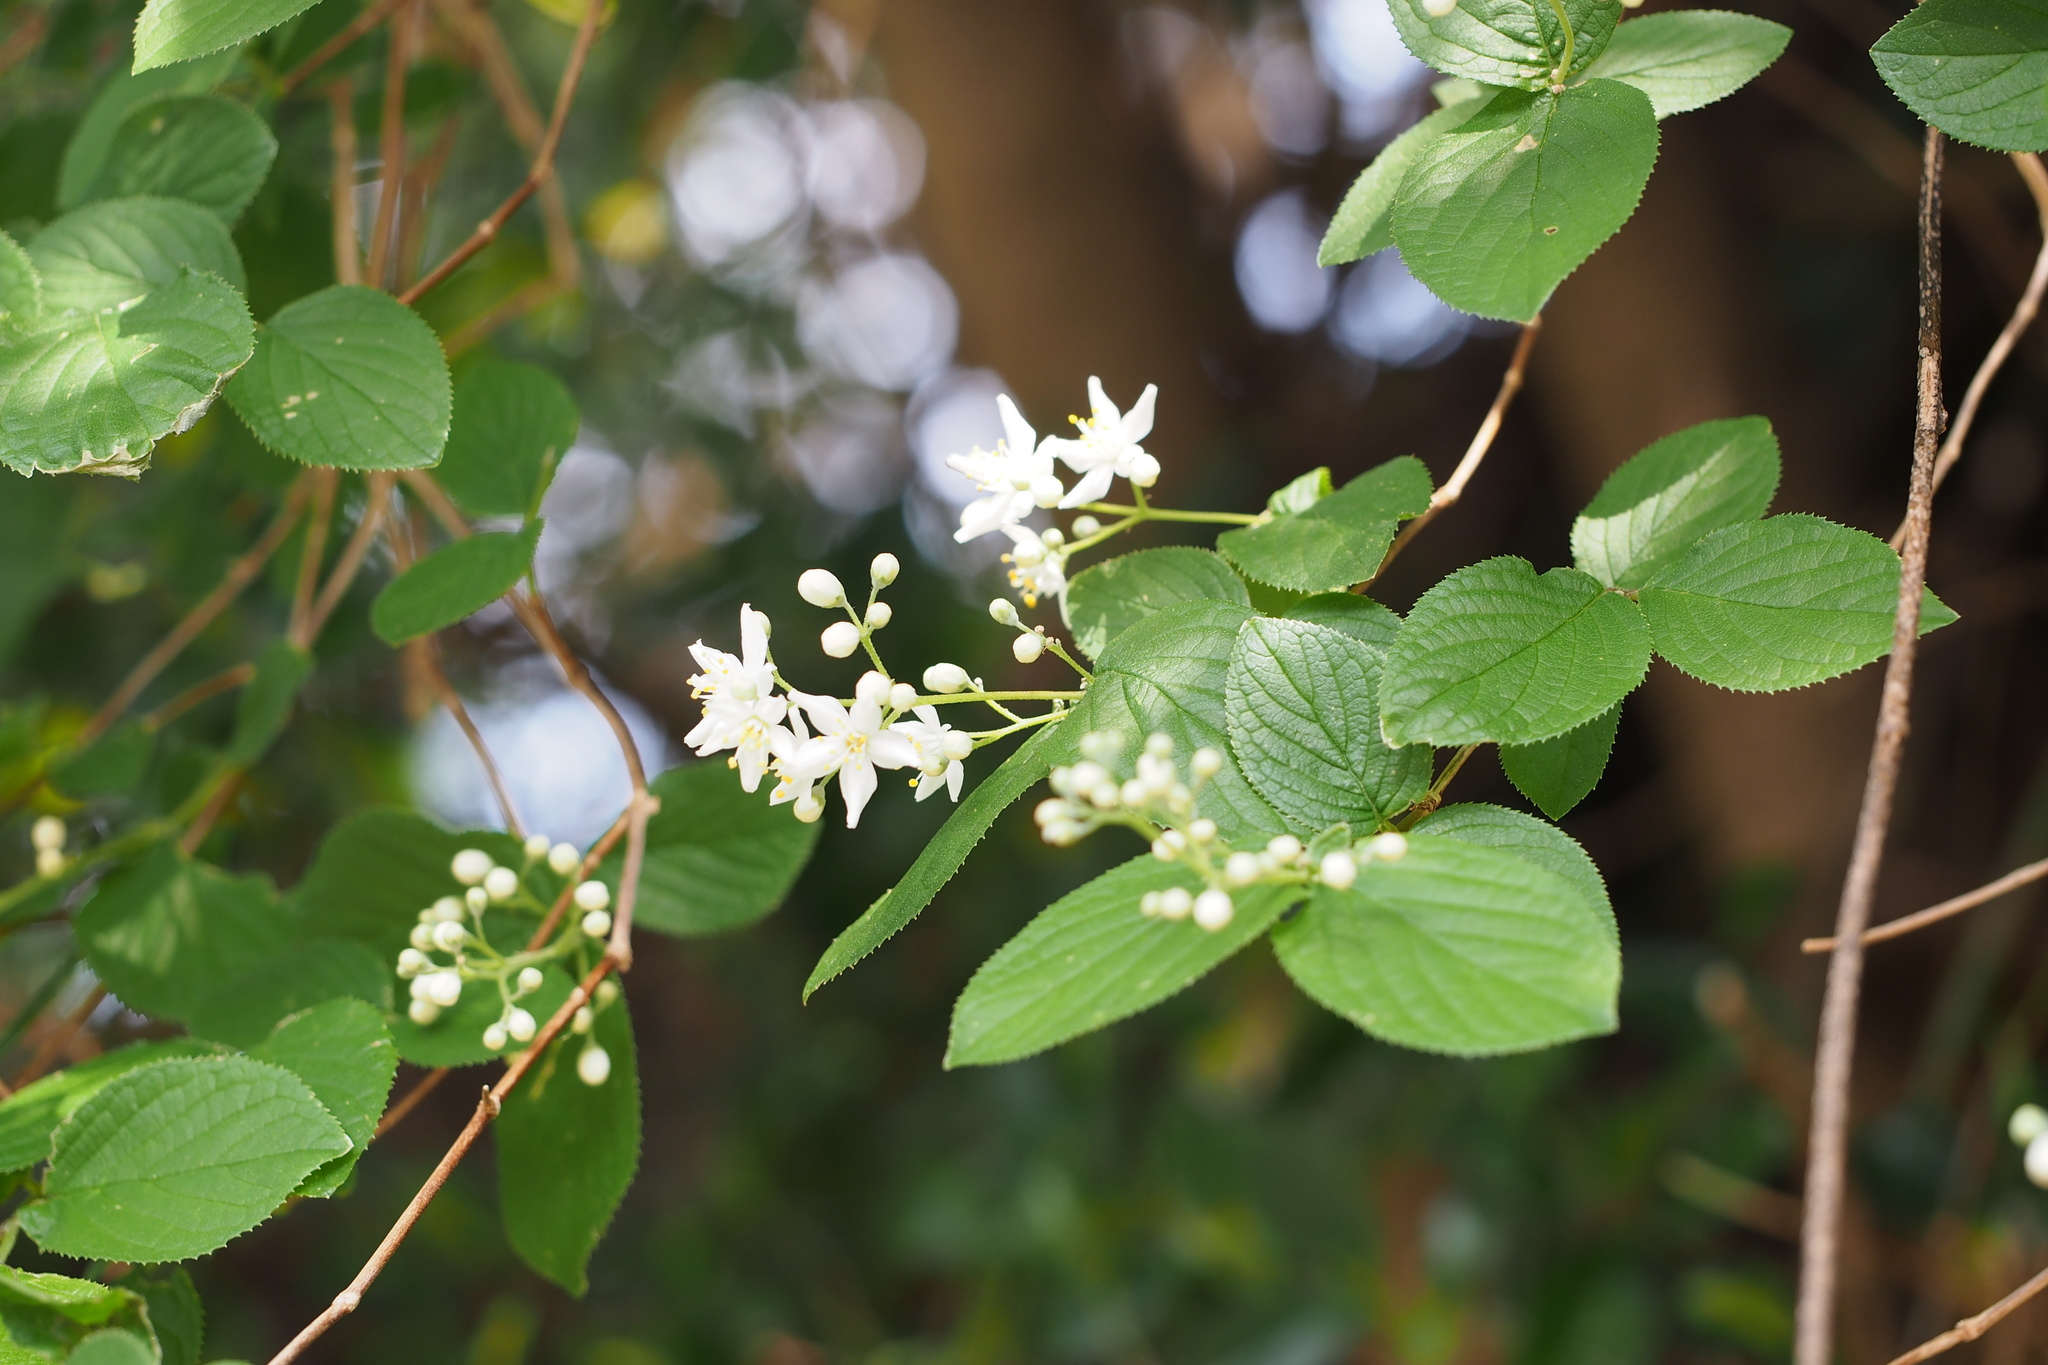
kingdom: Plantae
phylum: Tracheophyta
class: Magnoliopsida
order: Cornales
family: Hydrangeaceae
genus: Deutzia
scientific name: Deutzia scabra
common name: Deutzia
